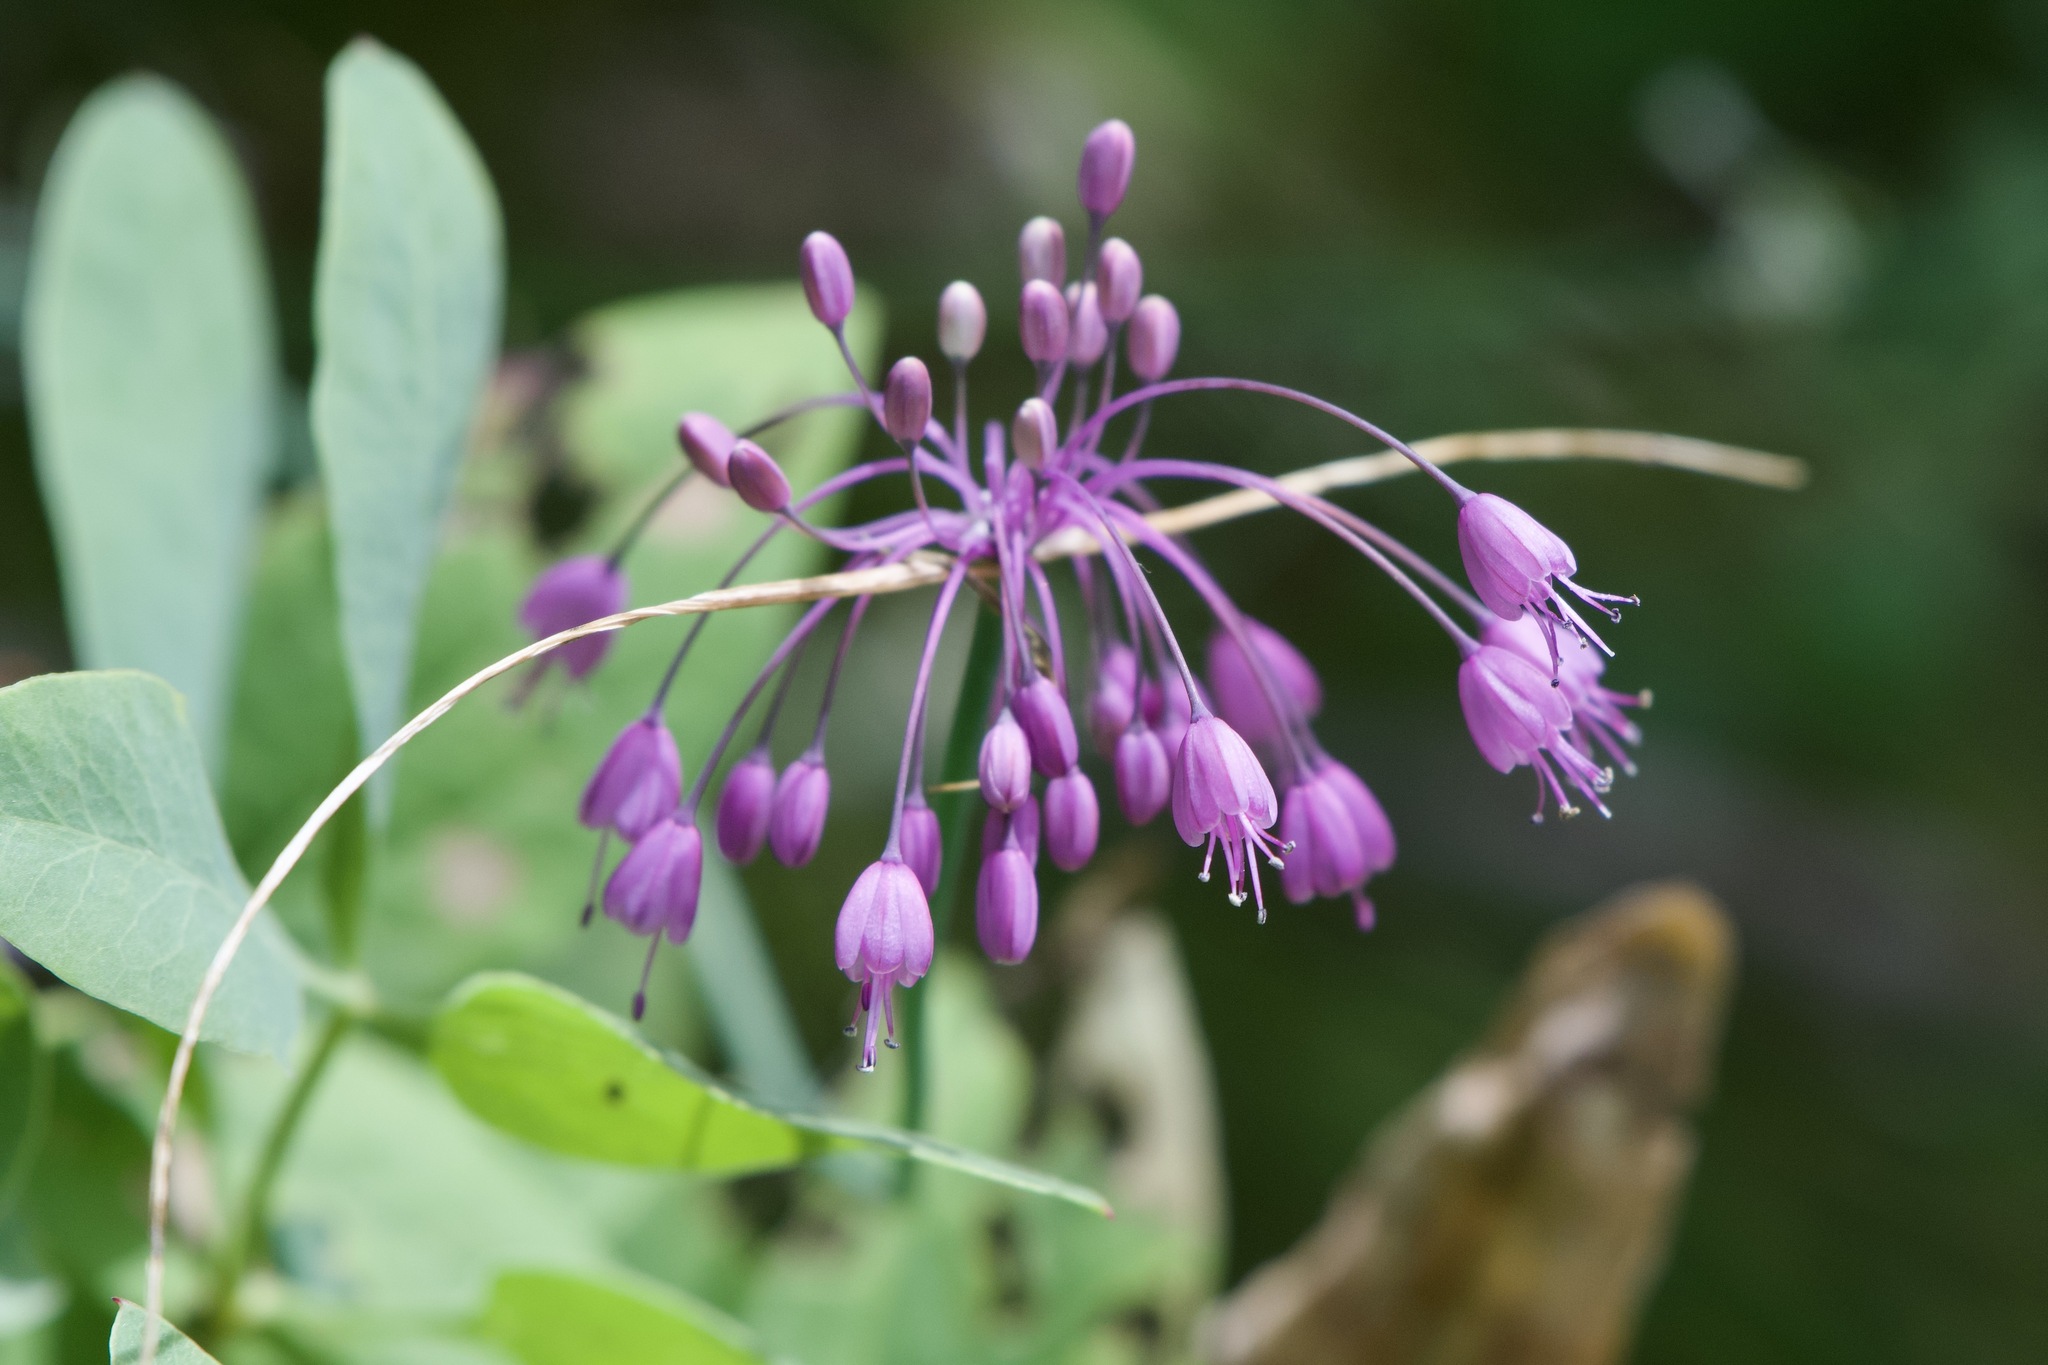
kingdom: Plantae
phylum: Tracheophyta
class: Liliopsida
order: Asparagales
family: Amaryllidaceae
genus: Allium
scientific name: Allium coloratum
